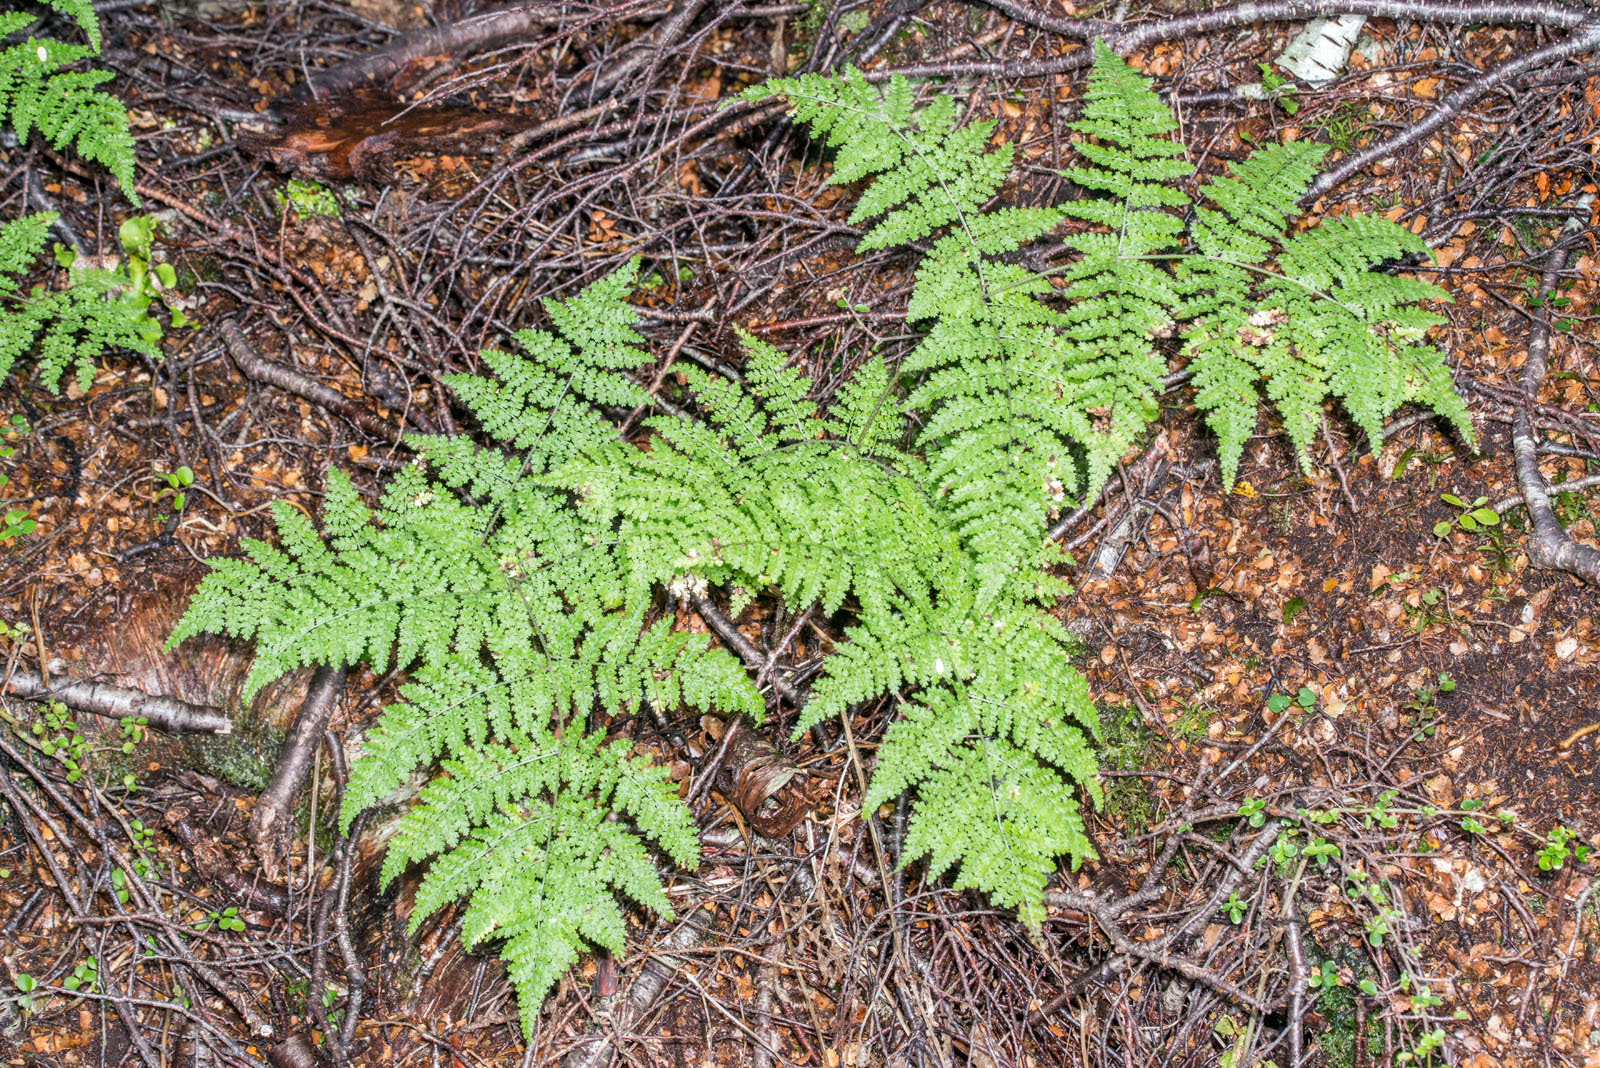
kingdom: Plantae
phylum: Tracheophyta
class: Polypodiopsida
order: Polypodiales
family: Dennstaedtiaceae
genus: Hypolepis
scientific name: Hypolepis millefolium
